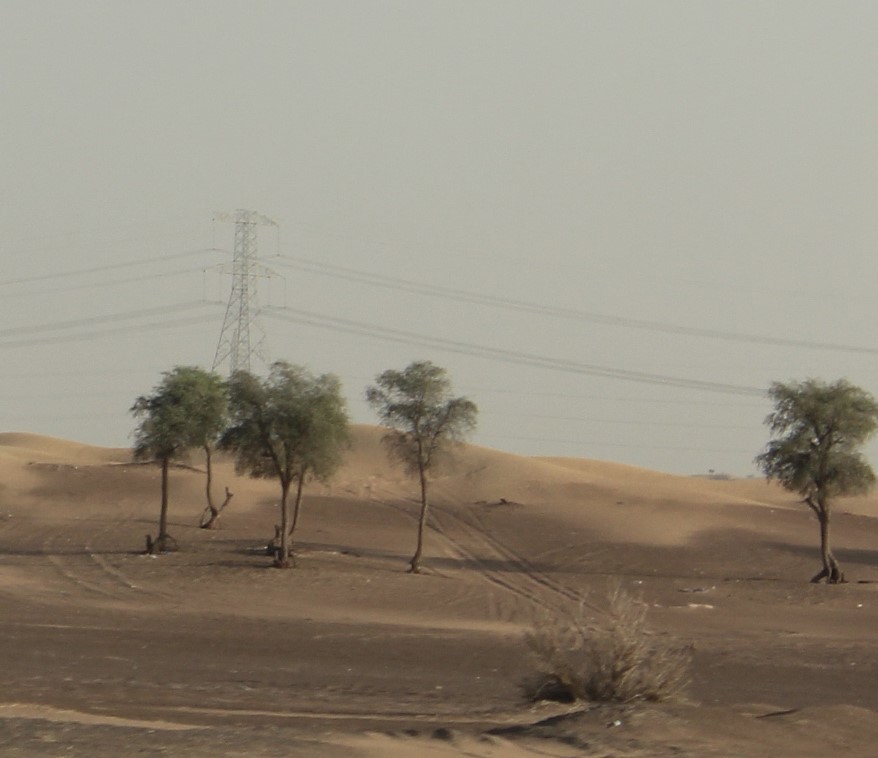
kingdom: Plantae
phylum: Tracheophyta
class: Magnoliopsida
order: Fabales
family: Fabaceae
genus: Prosopis
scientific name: Prosopis cineraria
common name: Jandi
